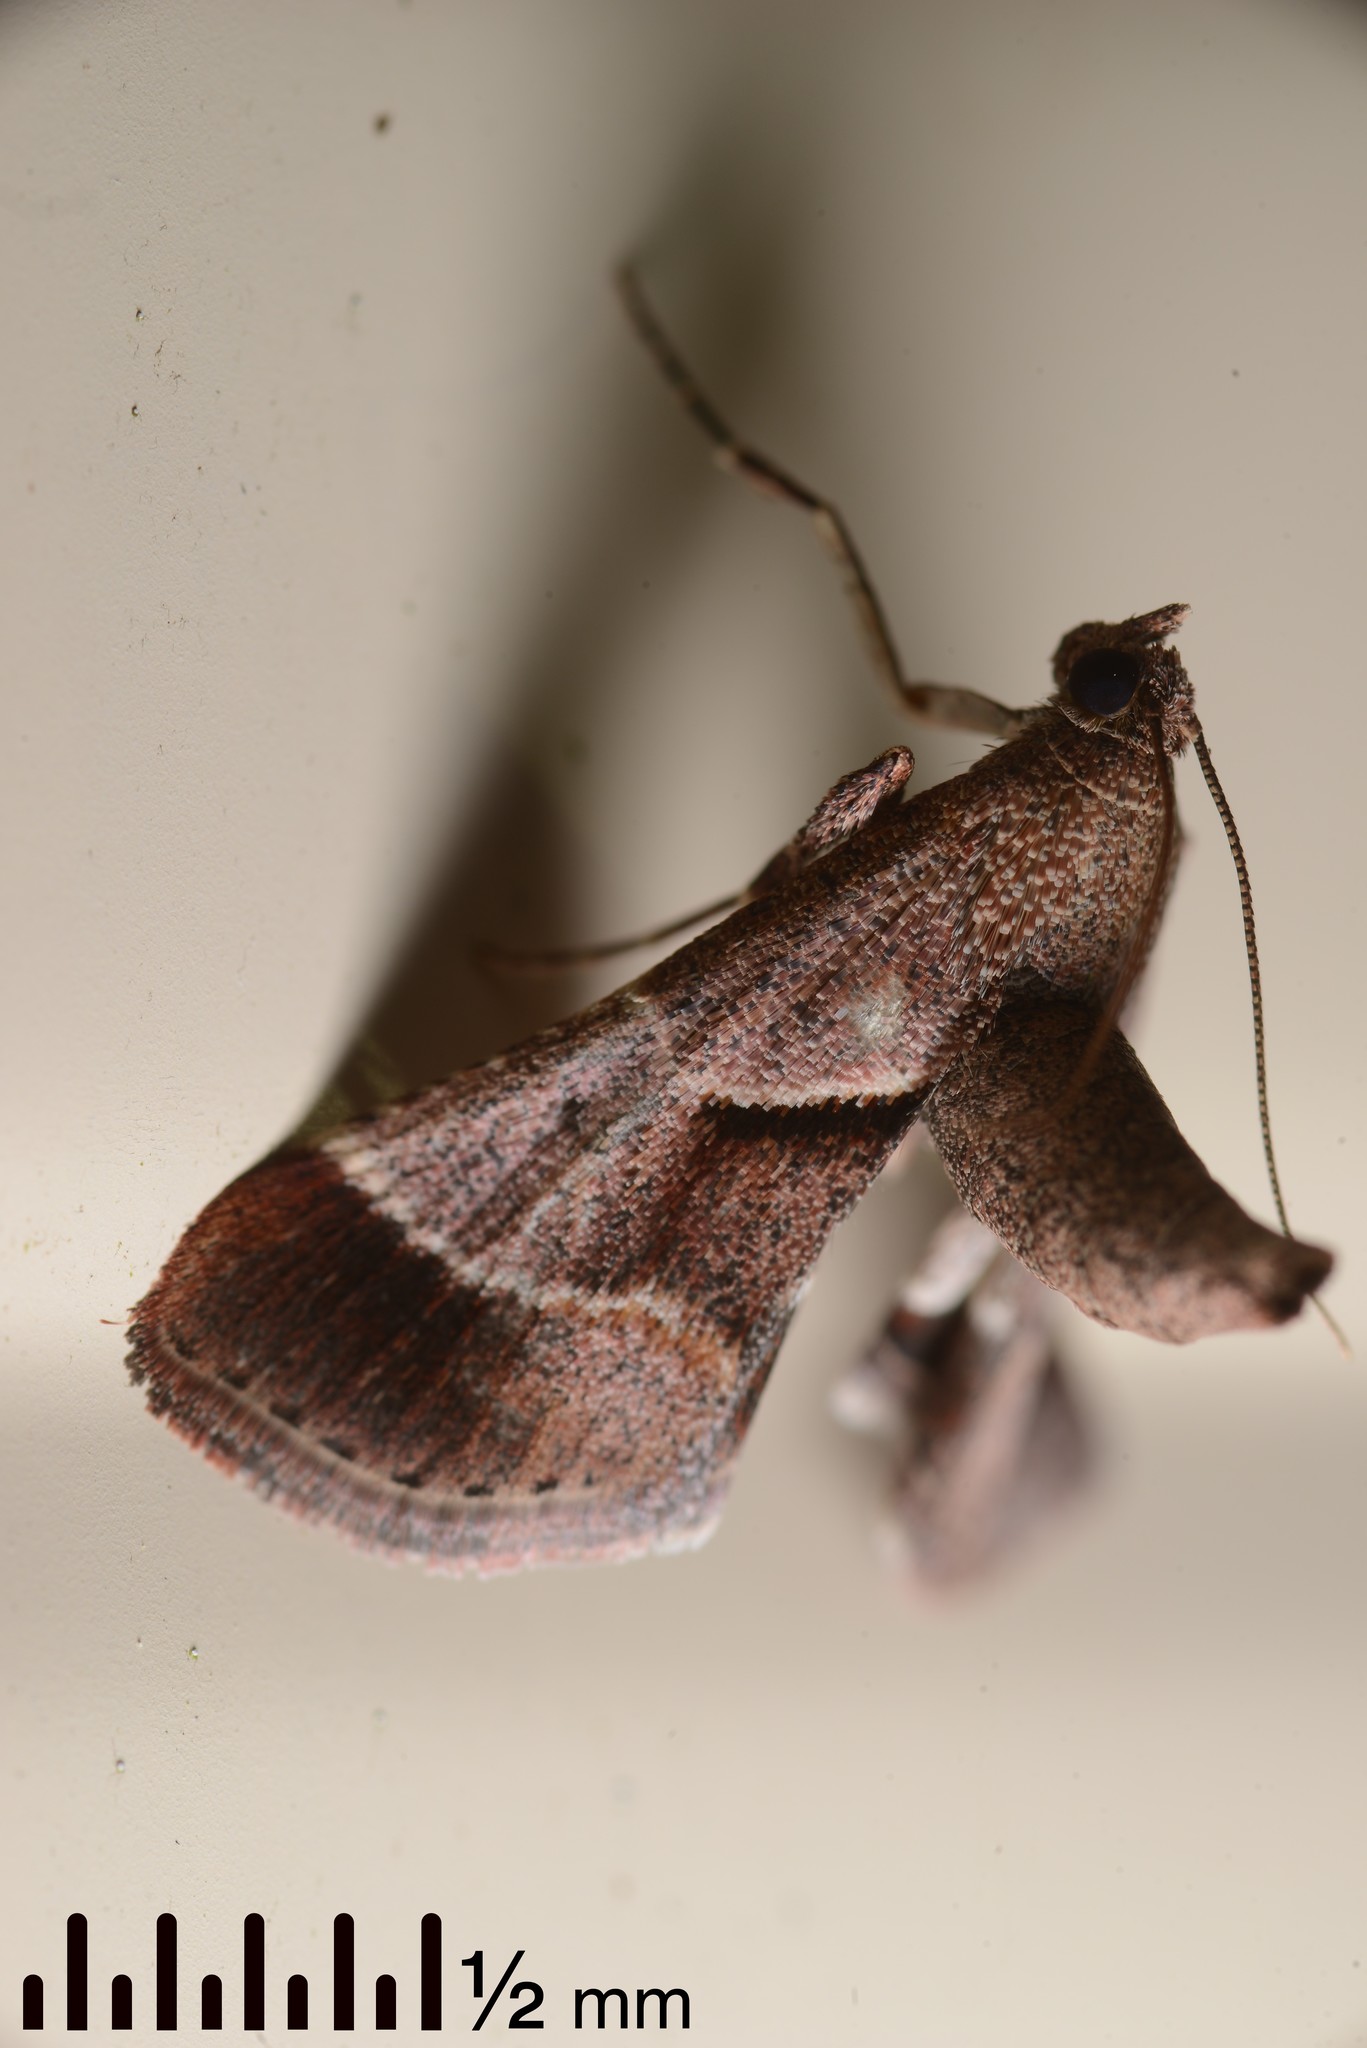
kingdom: Animalia
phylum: Arthropoda
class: Insecta
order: Lepidoptera
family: Pyralidae
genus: Gauna
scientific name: Gauna aegusalis
